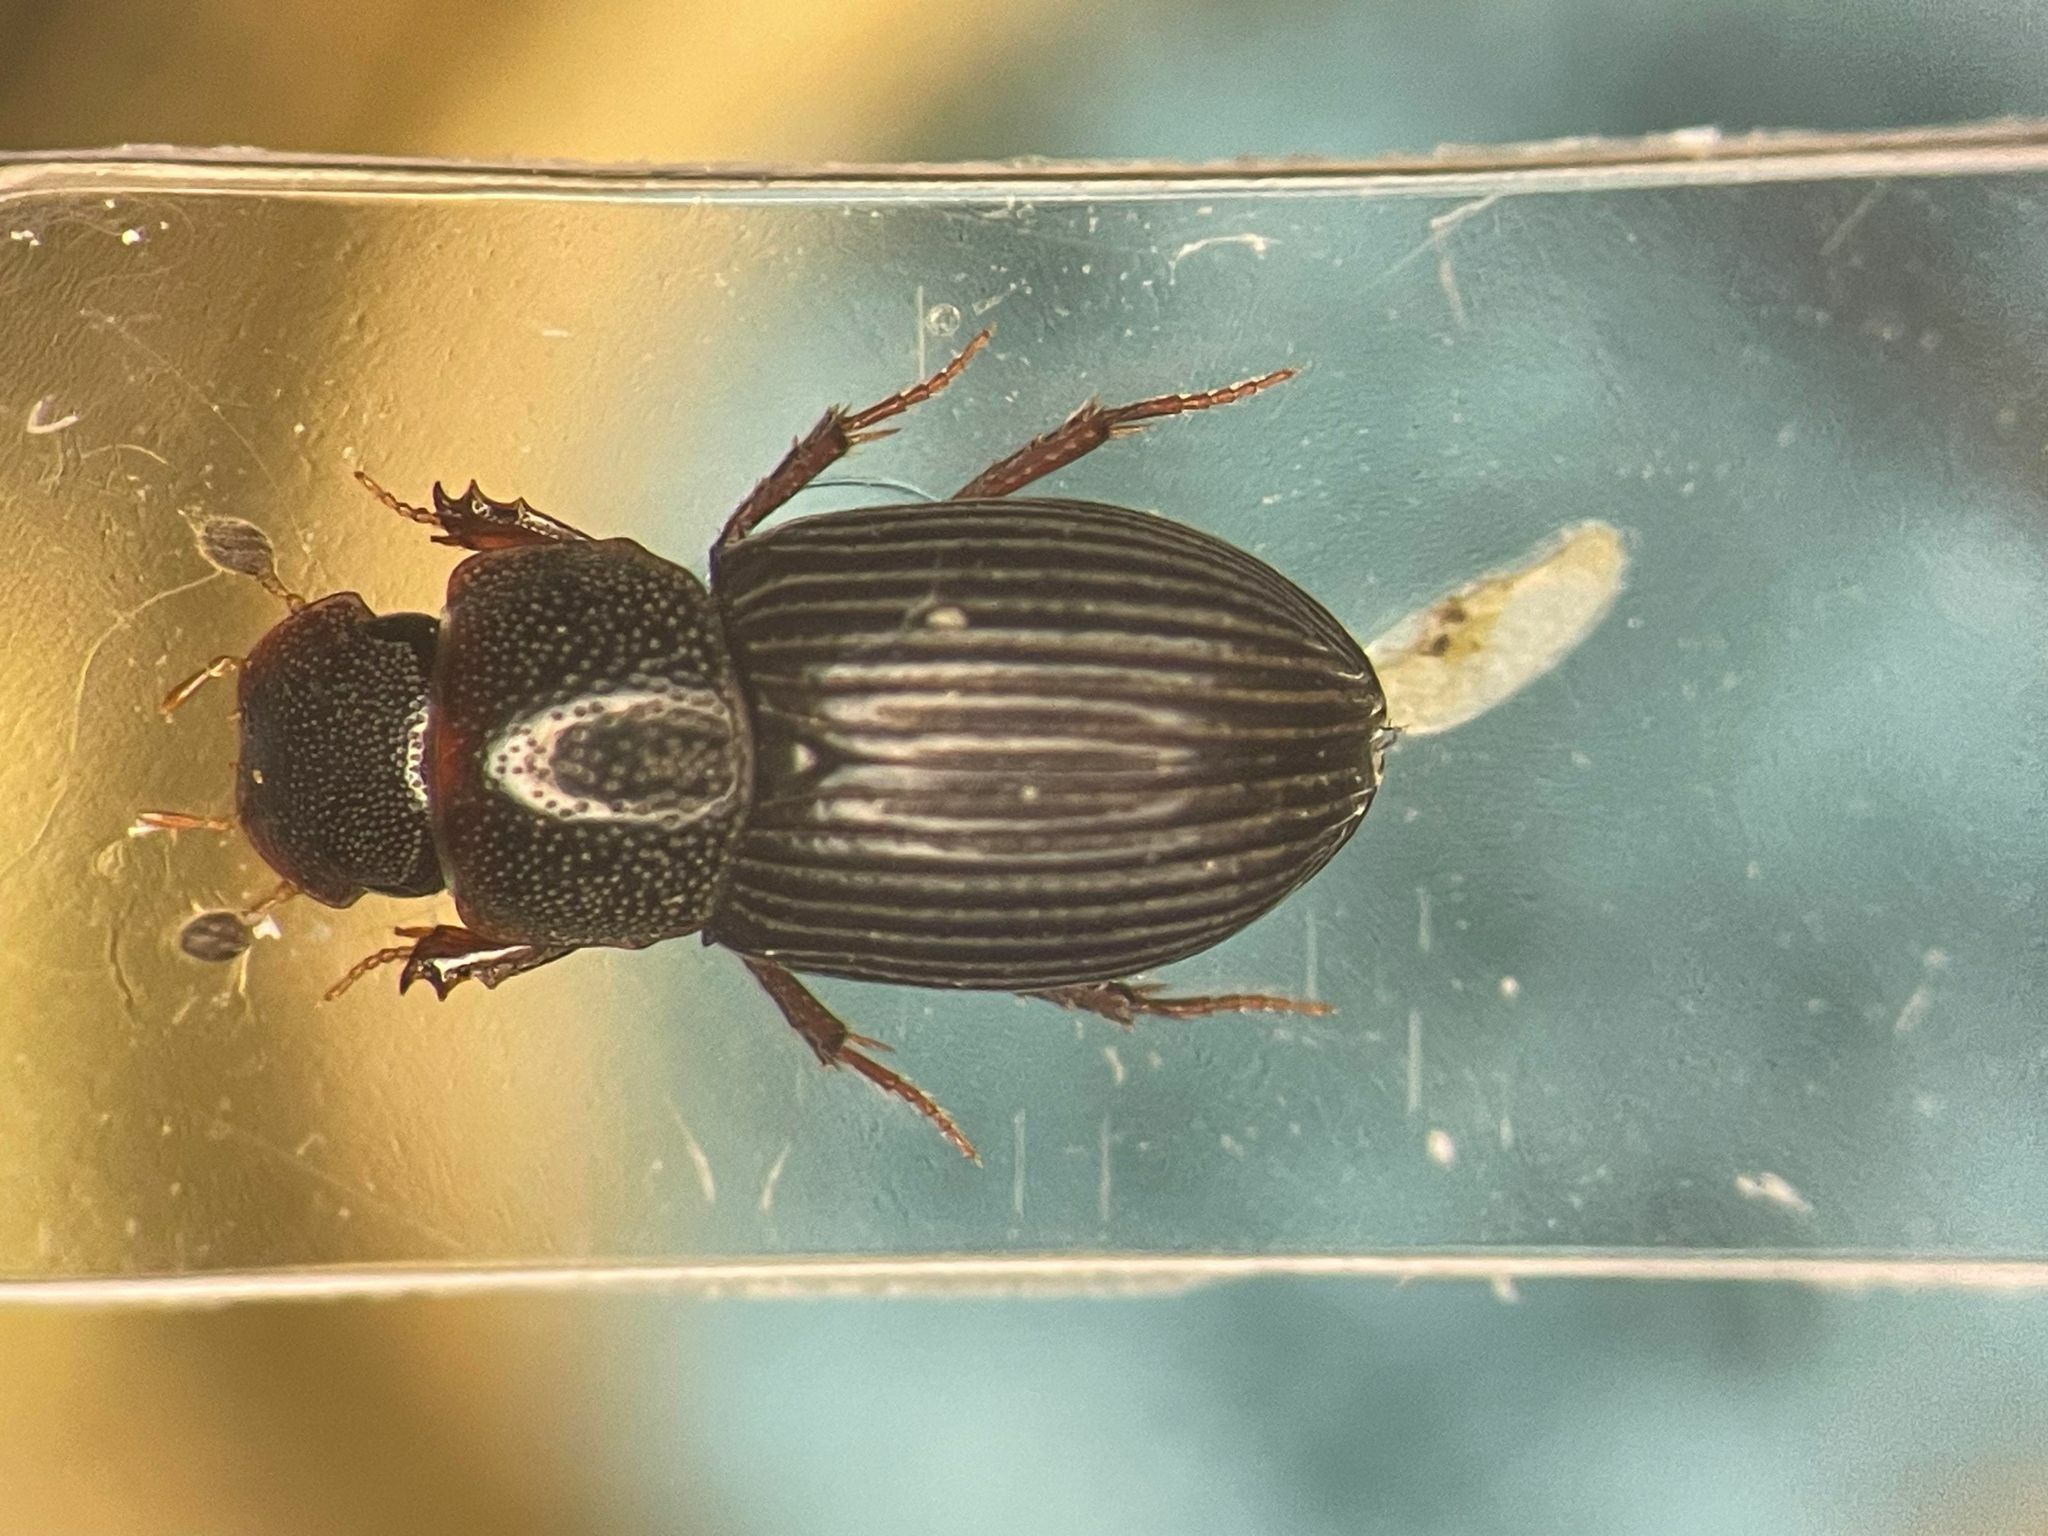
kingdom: Animalia
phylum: Arthropoda
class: Insecta
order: Coleoptera
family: Scarabaeidae
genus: Dialytellus
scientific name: Dialytellus dialytoides
